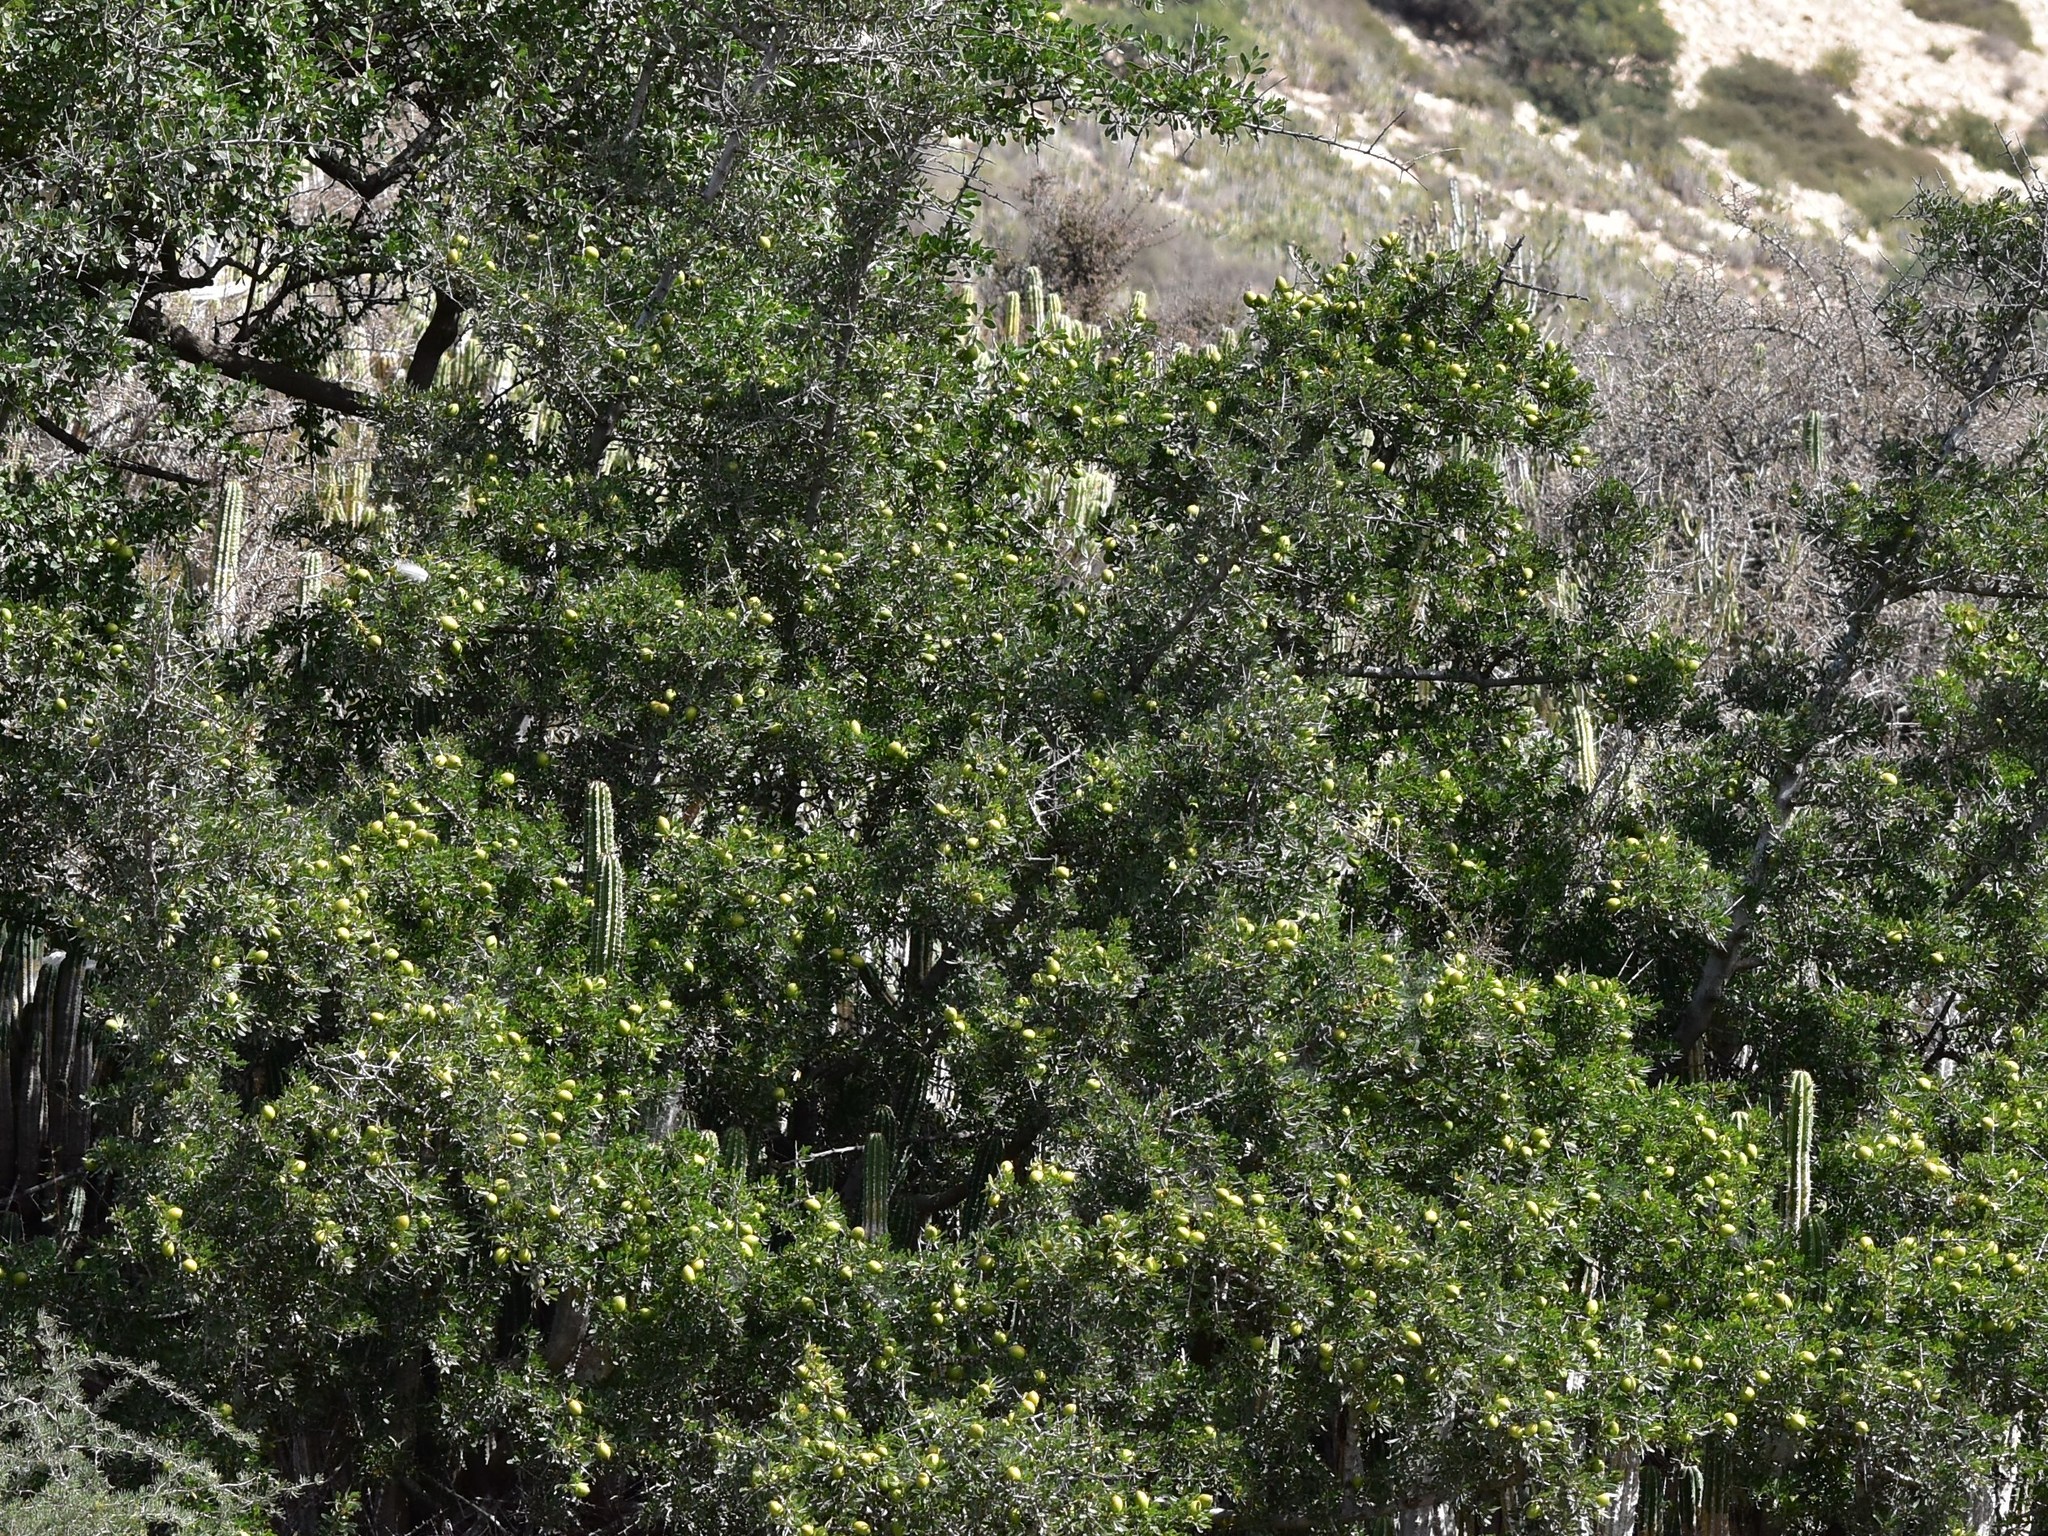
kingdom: Plantae
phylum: Tracheophyta
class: Magnoliopsida
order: Ericales
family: Sapotaceae
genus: Sideroxylon
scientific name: Sideroxylon spinosum
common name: Argan
